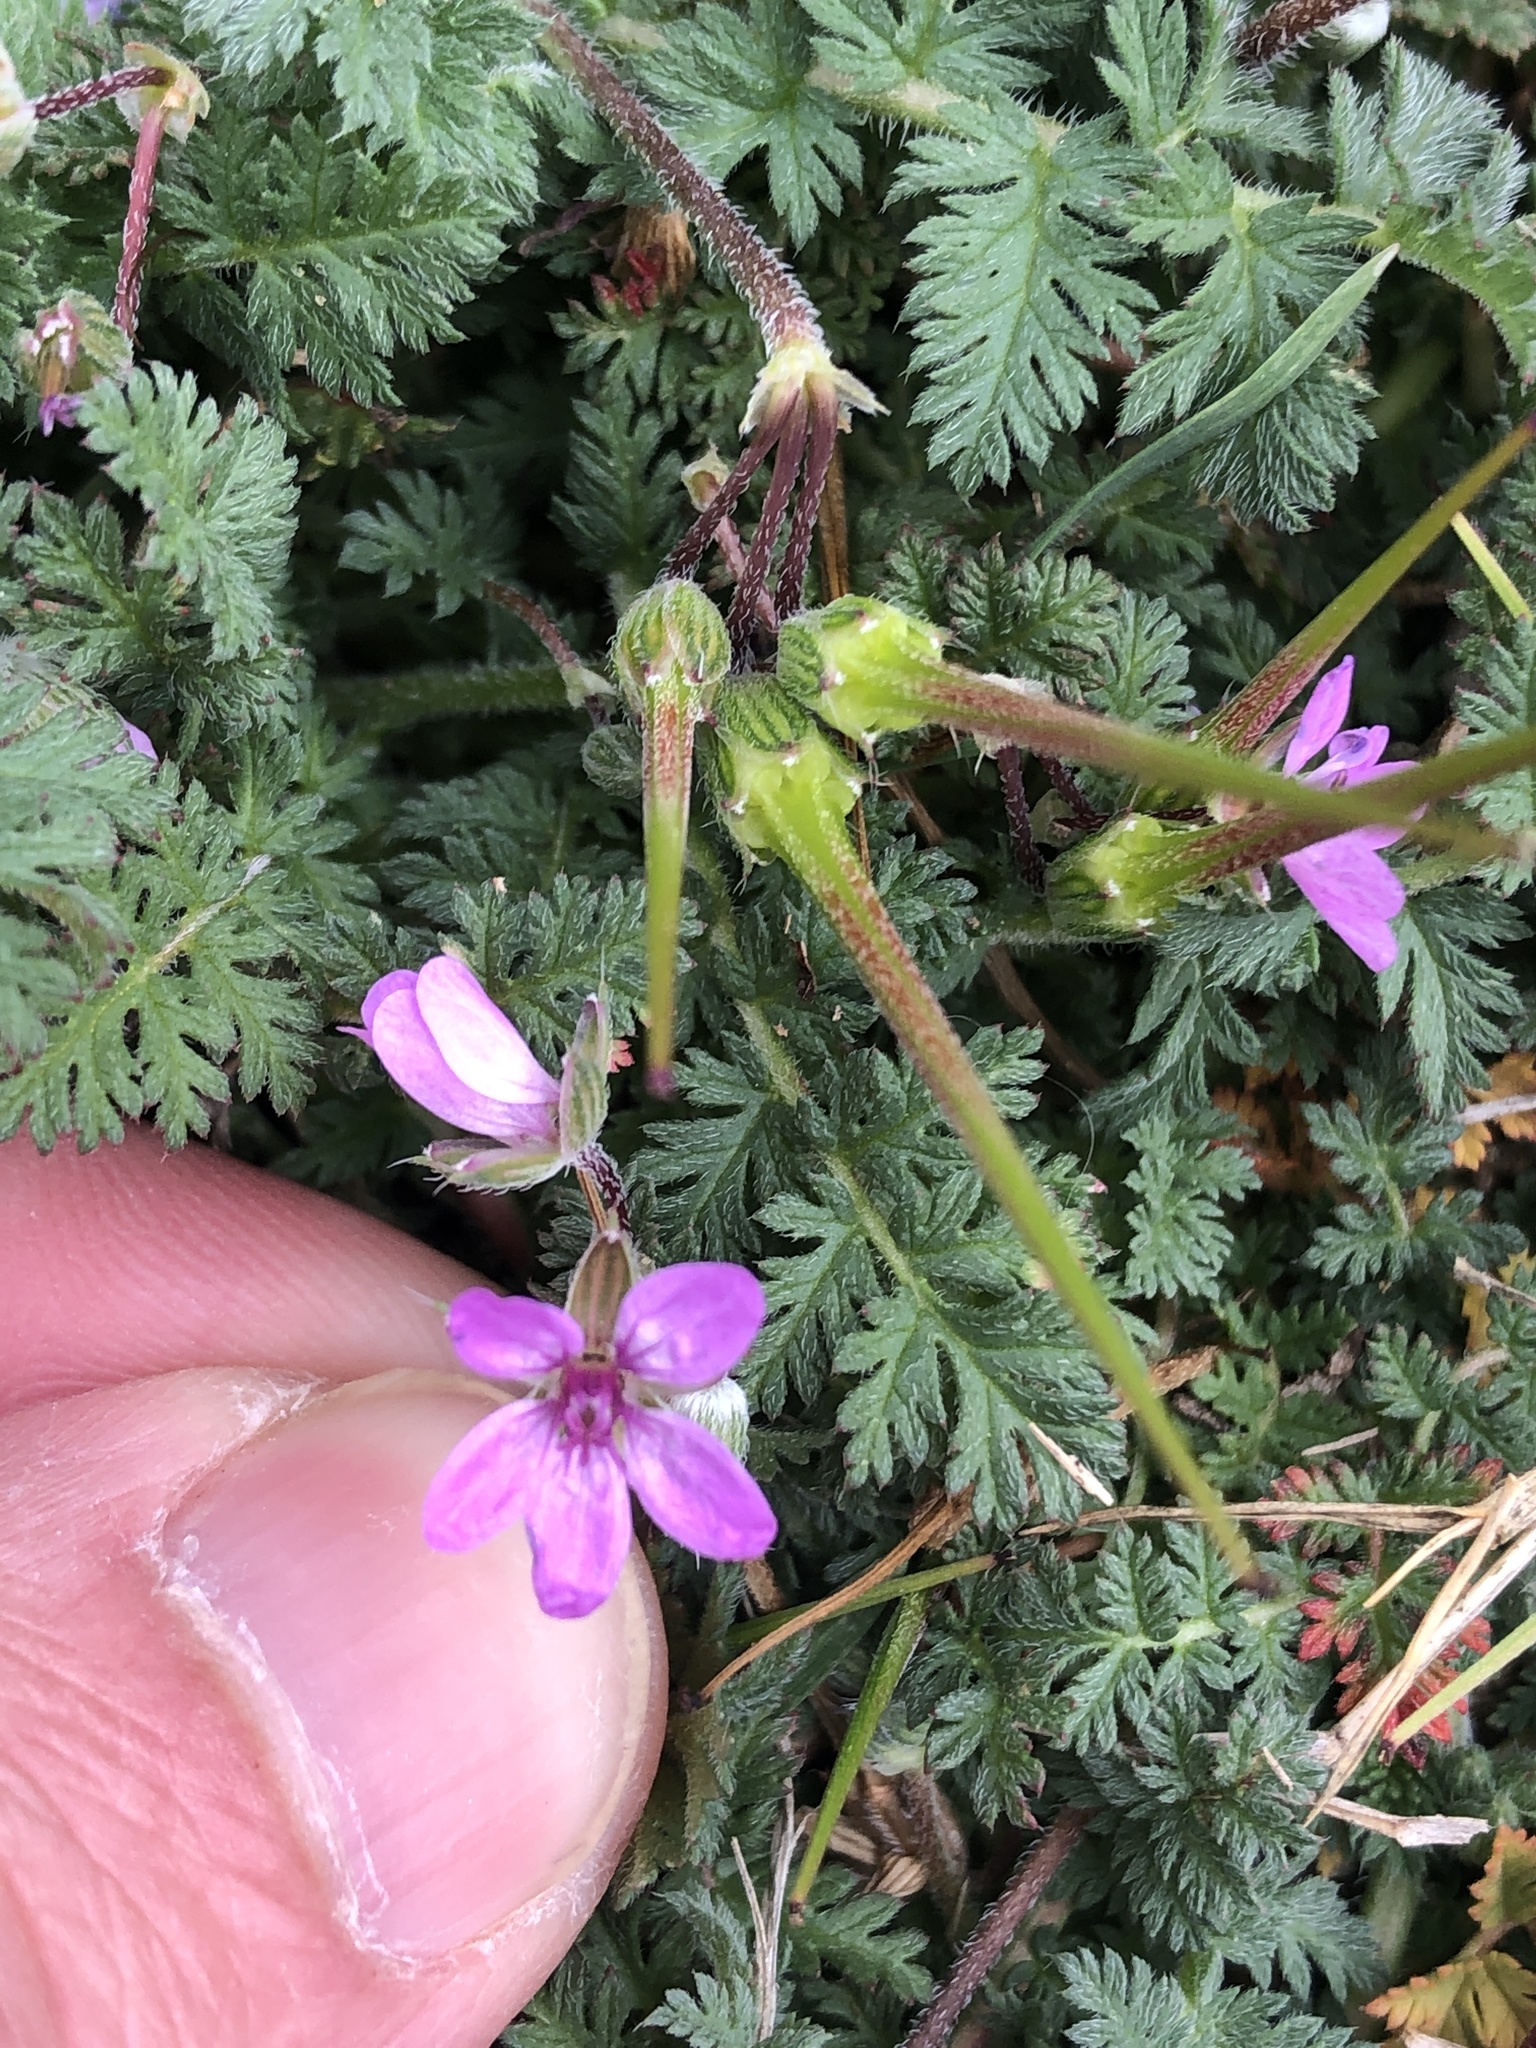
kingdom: Plantae
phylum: Tracheophyta
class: Magnoliopsida
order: Geraniales
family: Geraniaceae
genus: Erodium
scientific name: Erodium cicutarium
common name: Common stork's-bill
